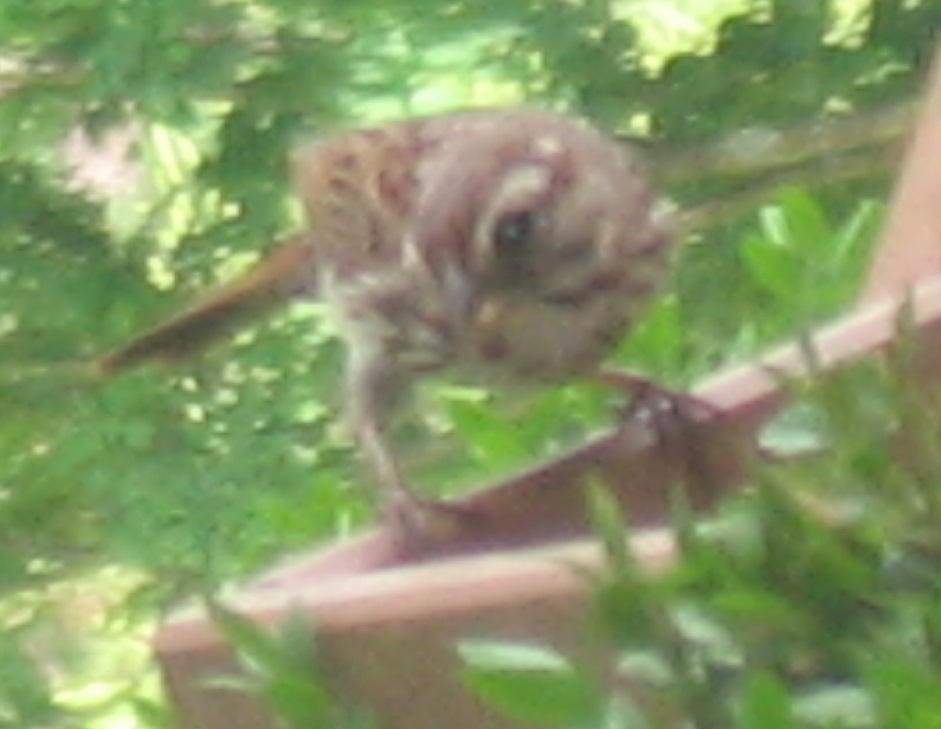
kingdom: Animalia
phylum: Chordata
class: Aves
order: Passeriformes
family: Passerellidae
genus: Melospiza
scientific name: Melospiza melodia
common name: Song sparrow
